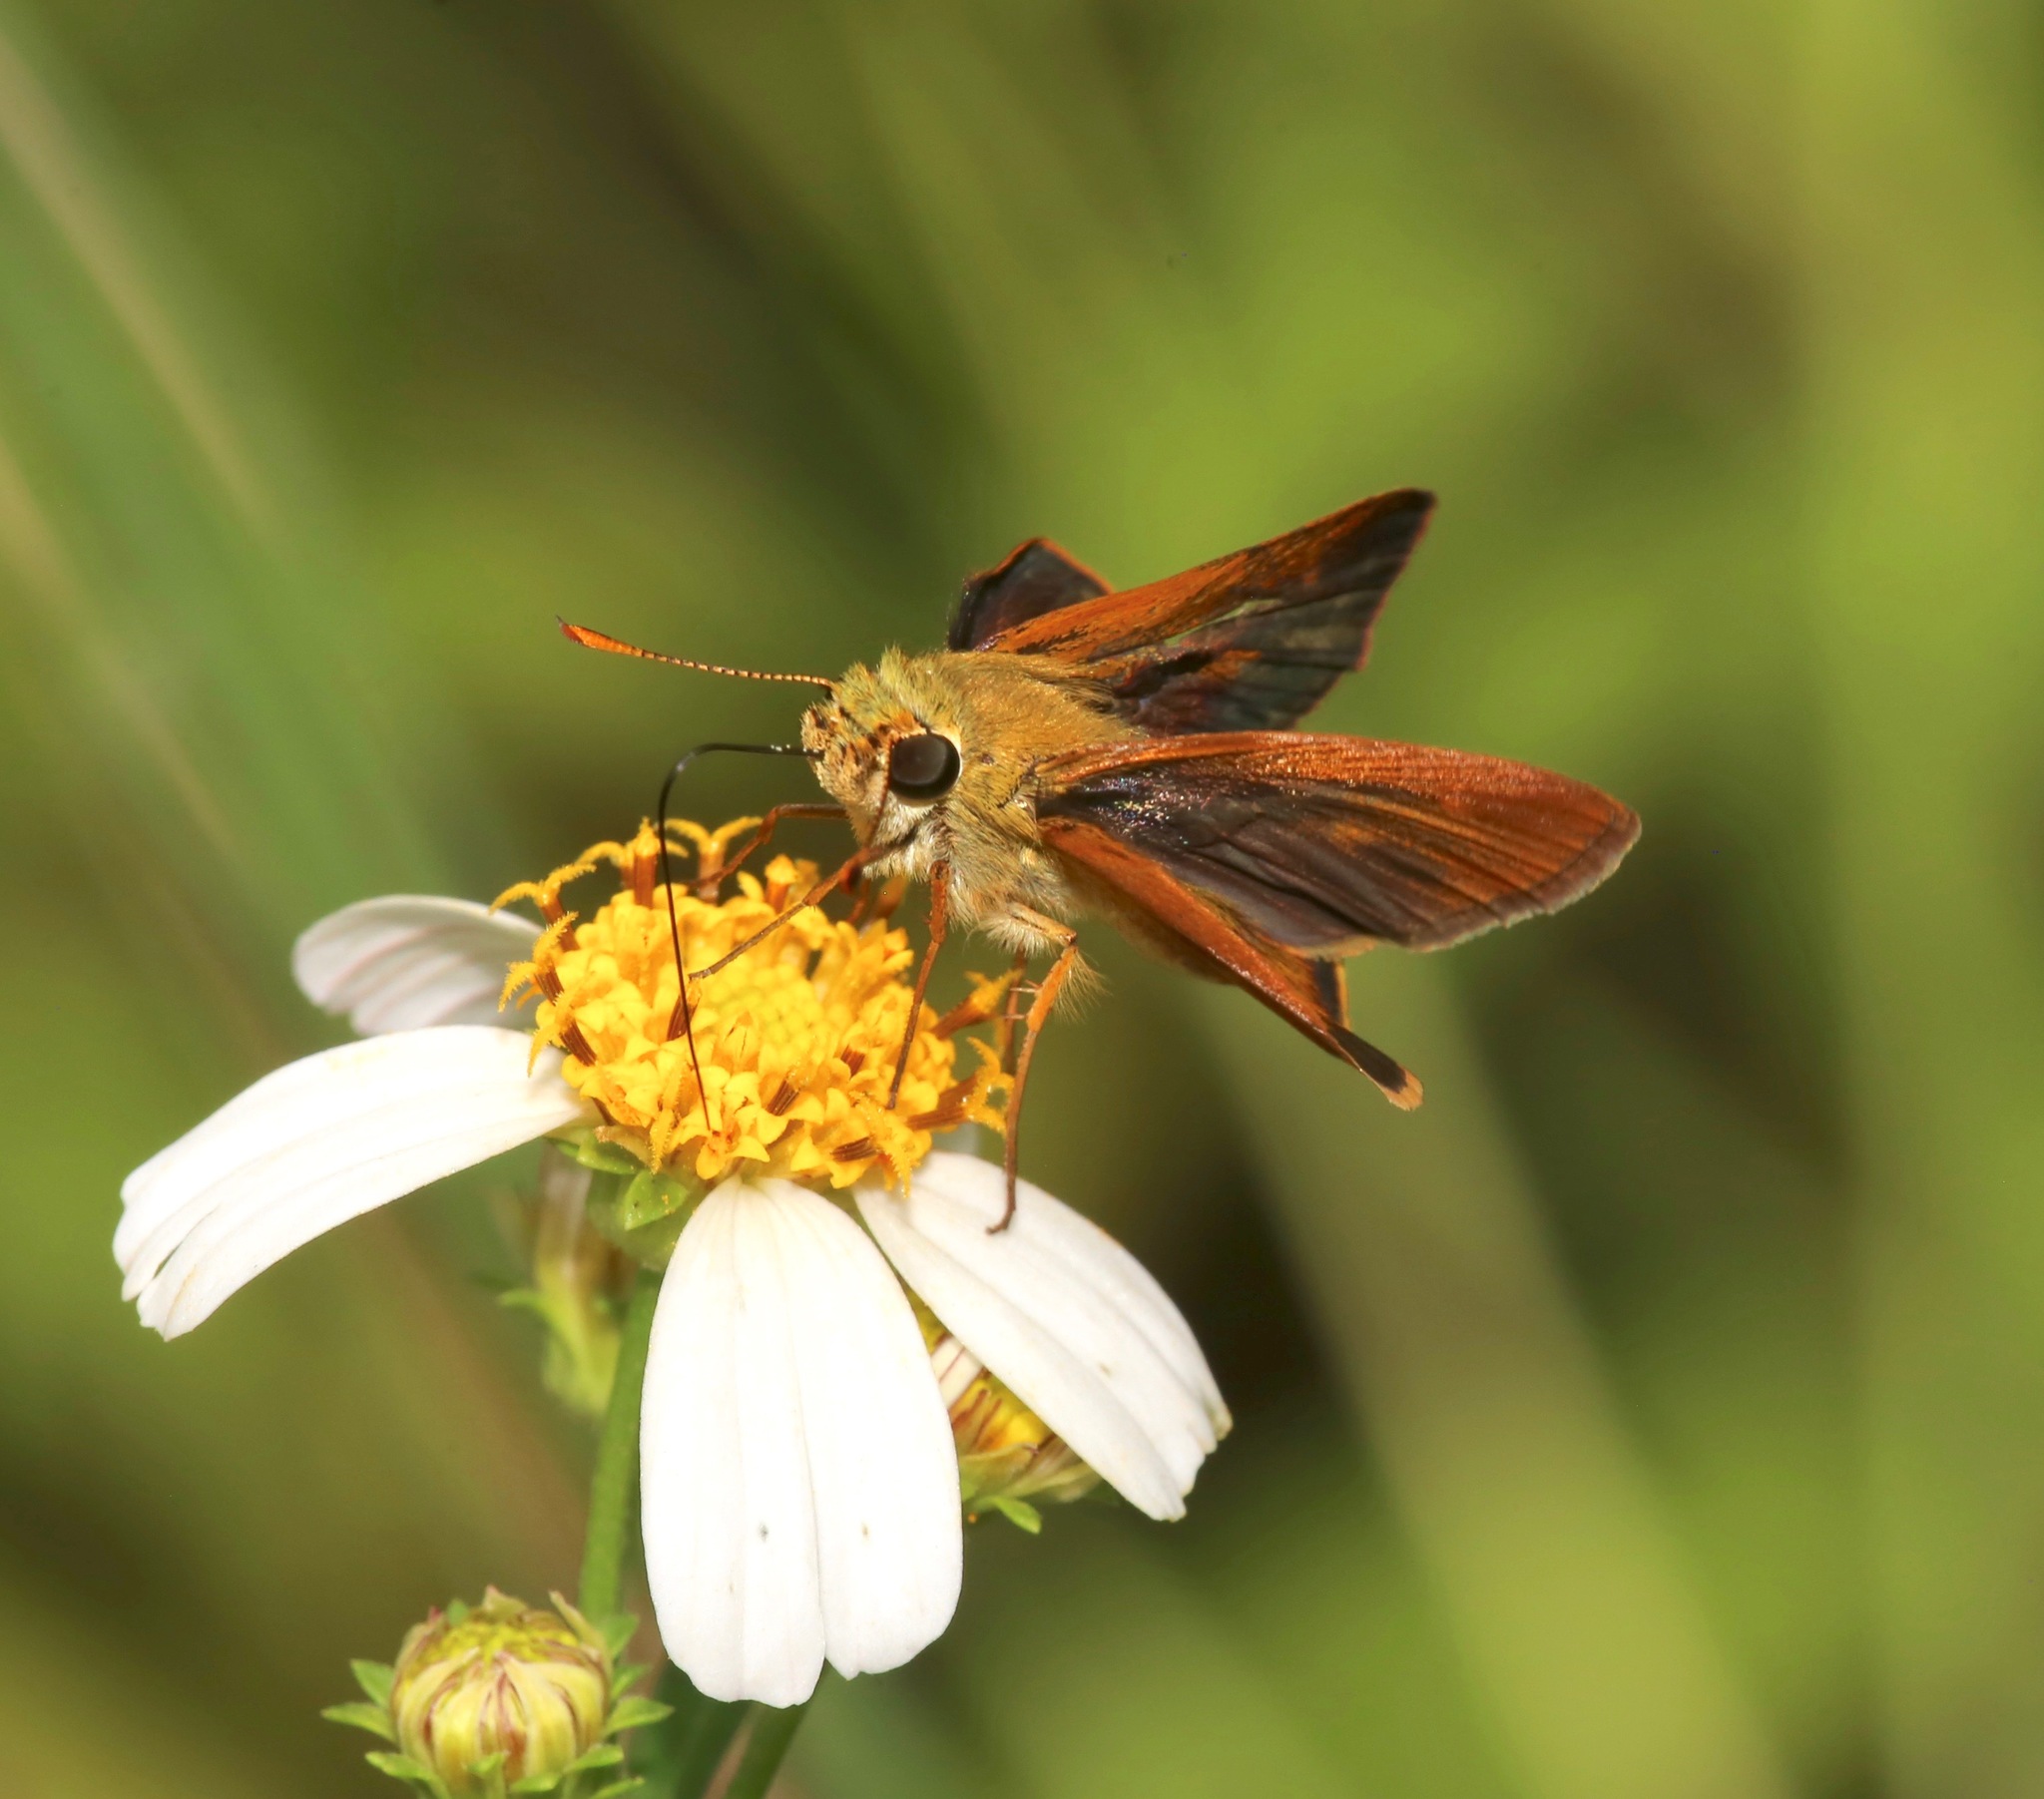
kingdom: Animalia
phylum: Arthropoda
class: Insecta
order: Lepidoptera
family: Hesperiidae
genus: Polites
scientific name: Polites otho
